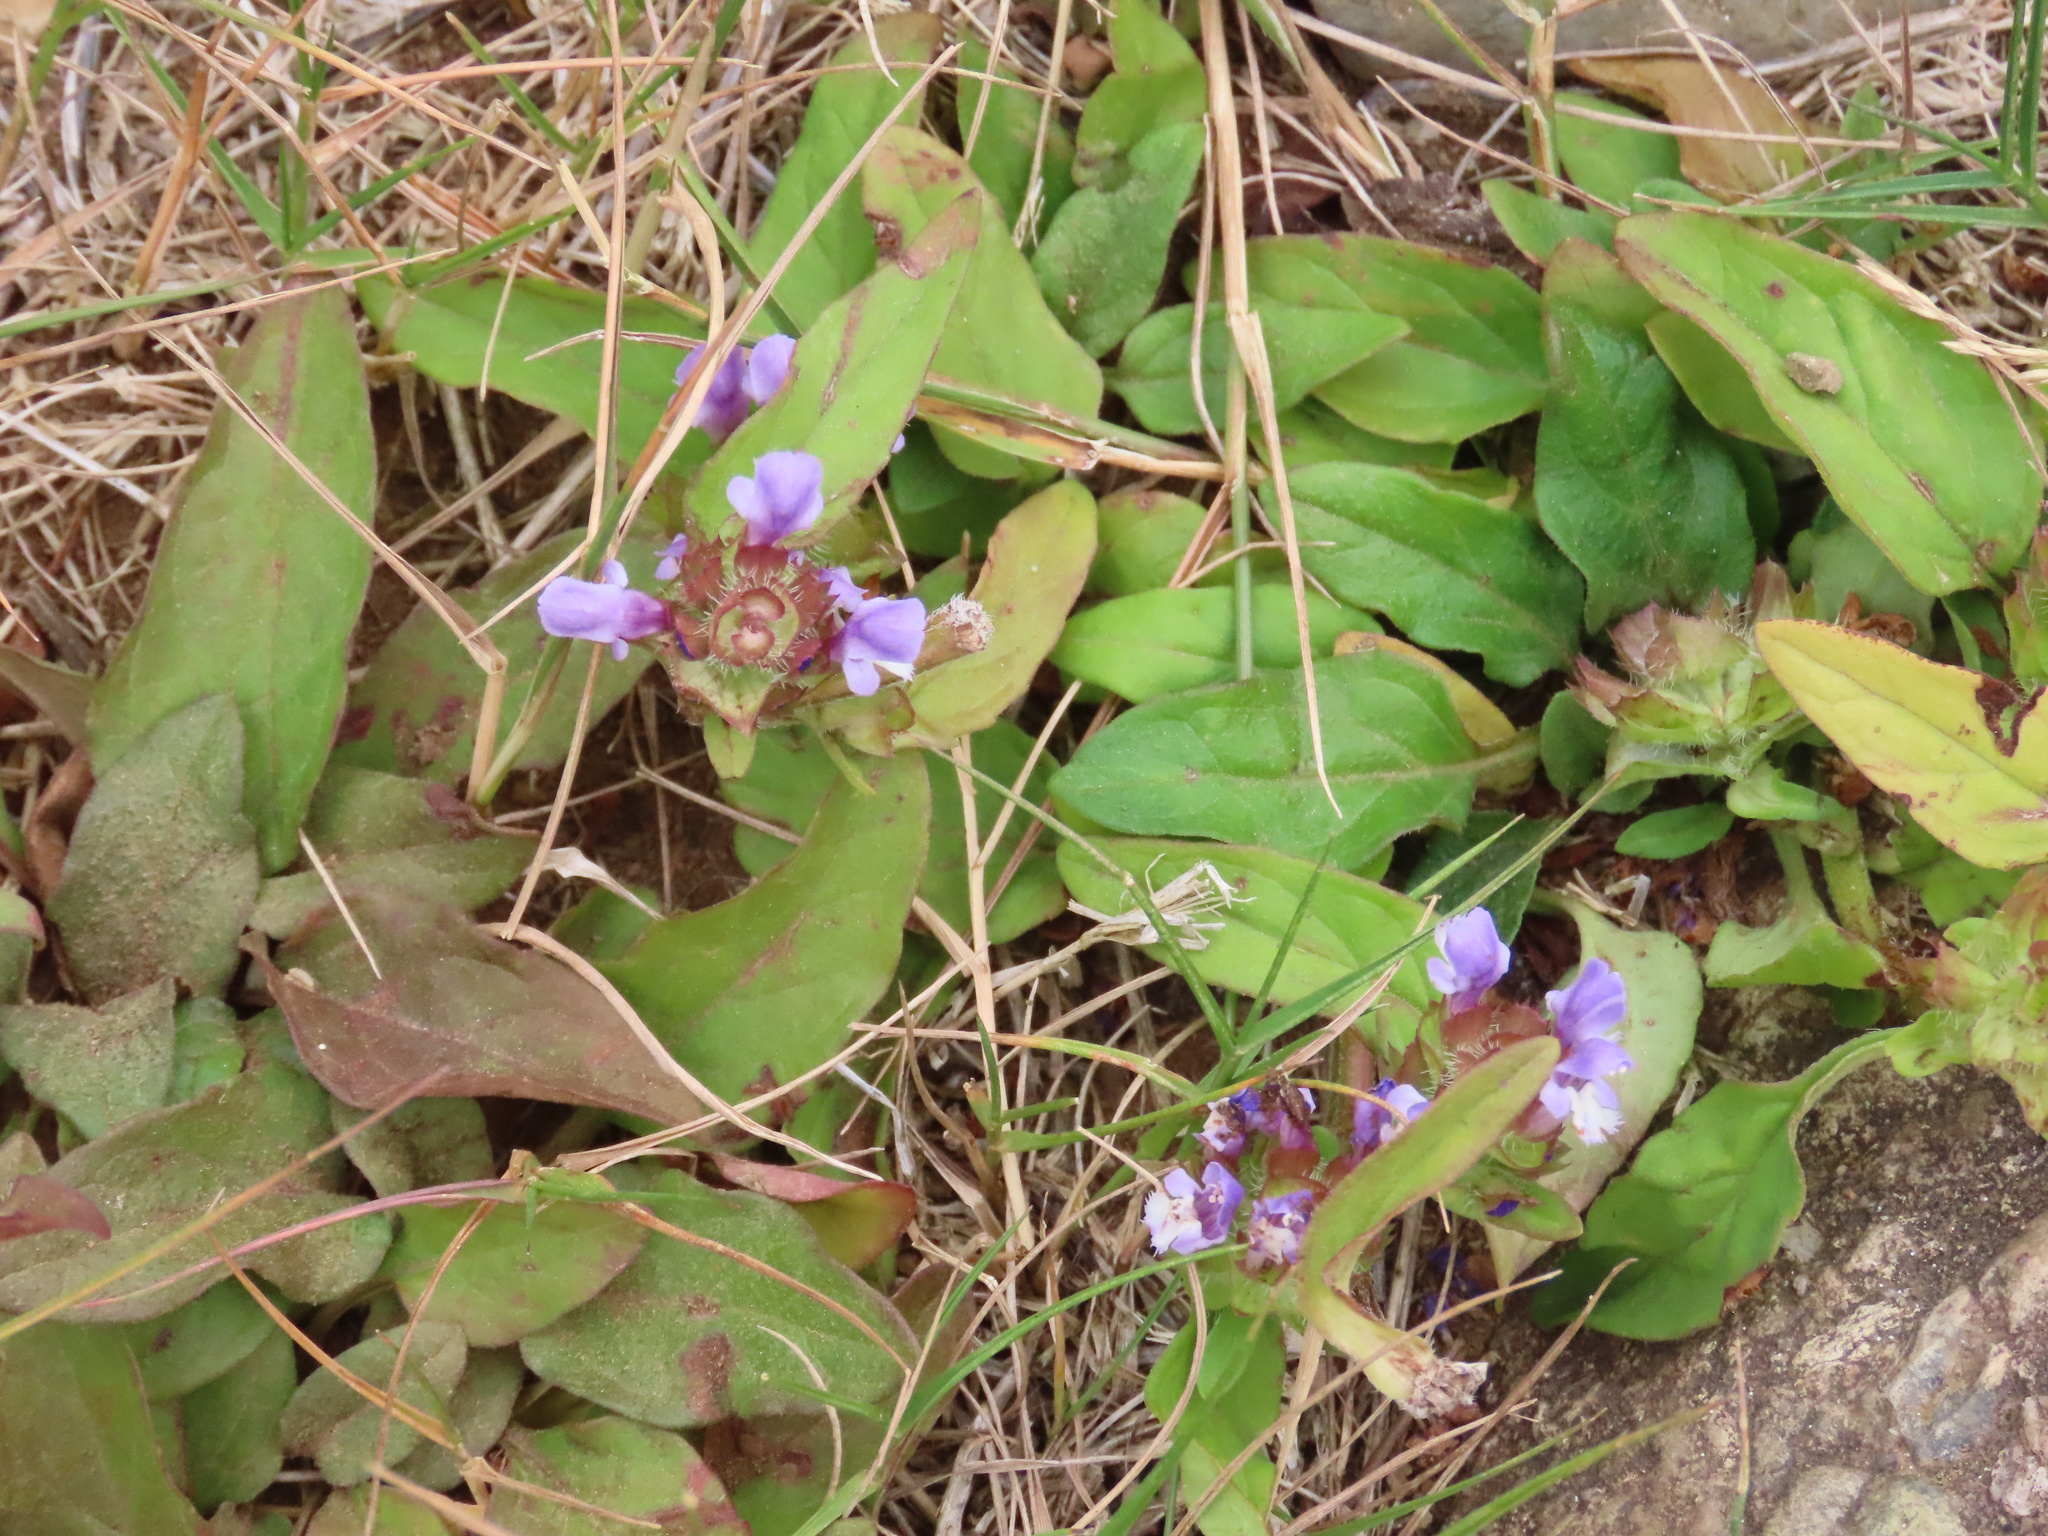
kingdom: Plantae
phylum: Tracheophyta
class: Magnoliopsida
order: Lamiales
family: Lamiaceae
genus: Prunella
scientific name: Prunella vulgaris
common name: Heal-all
